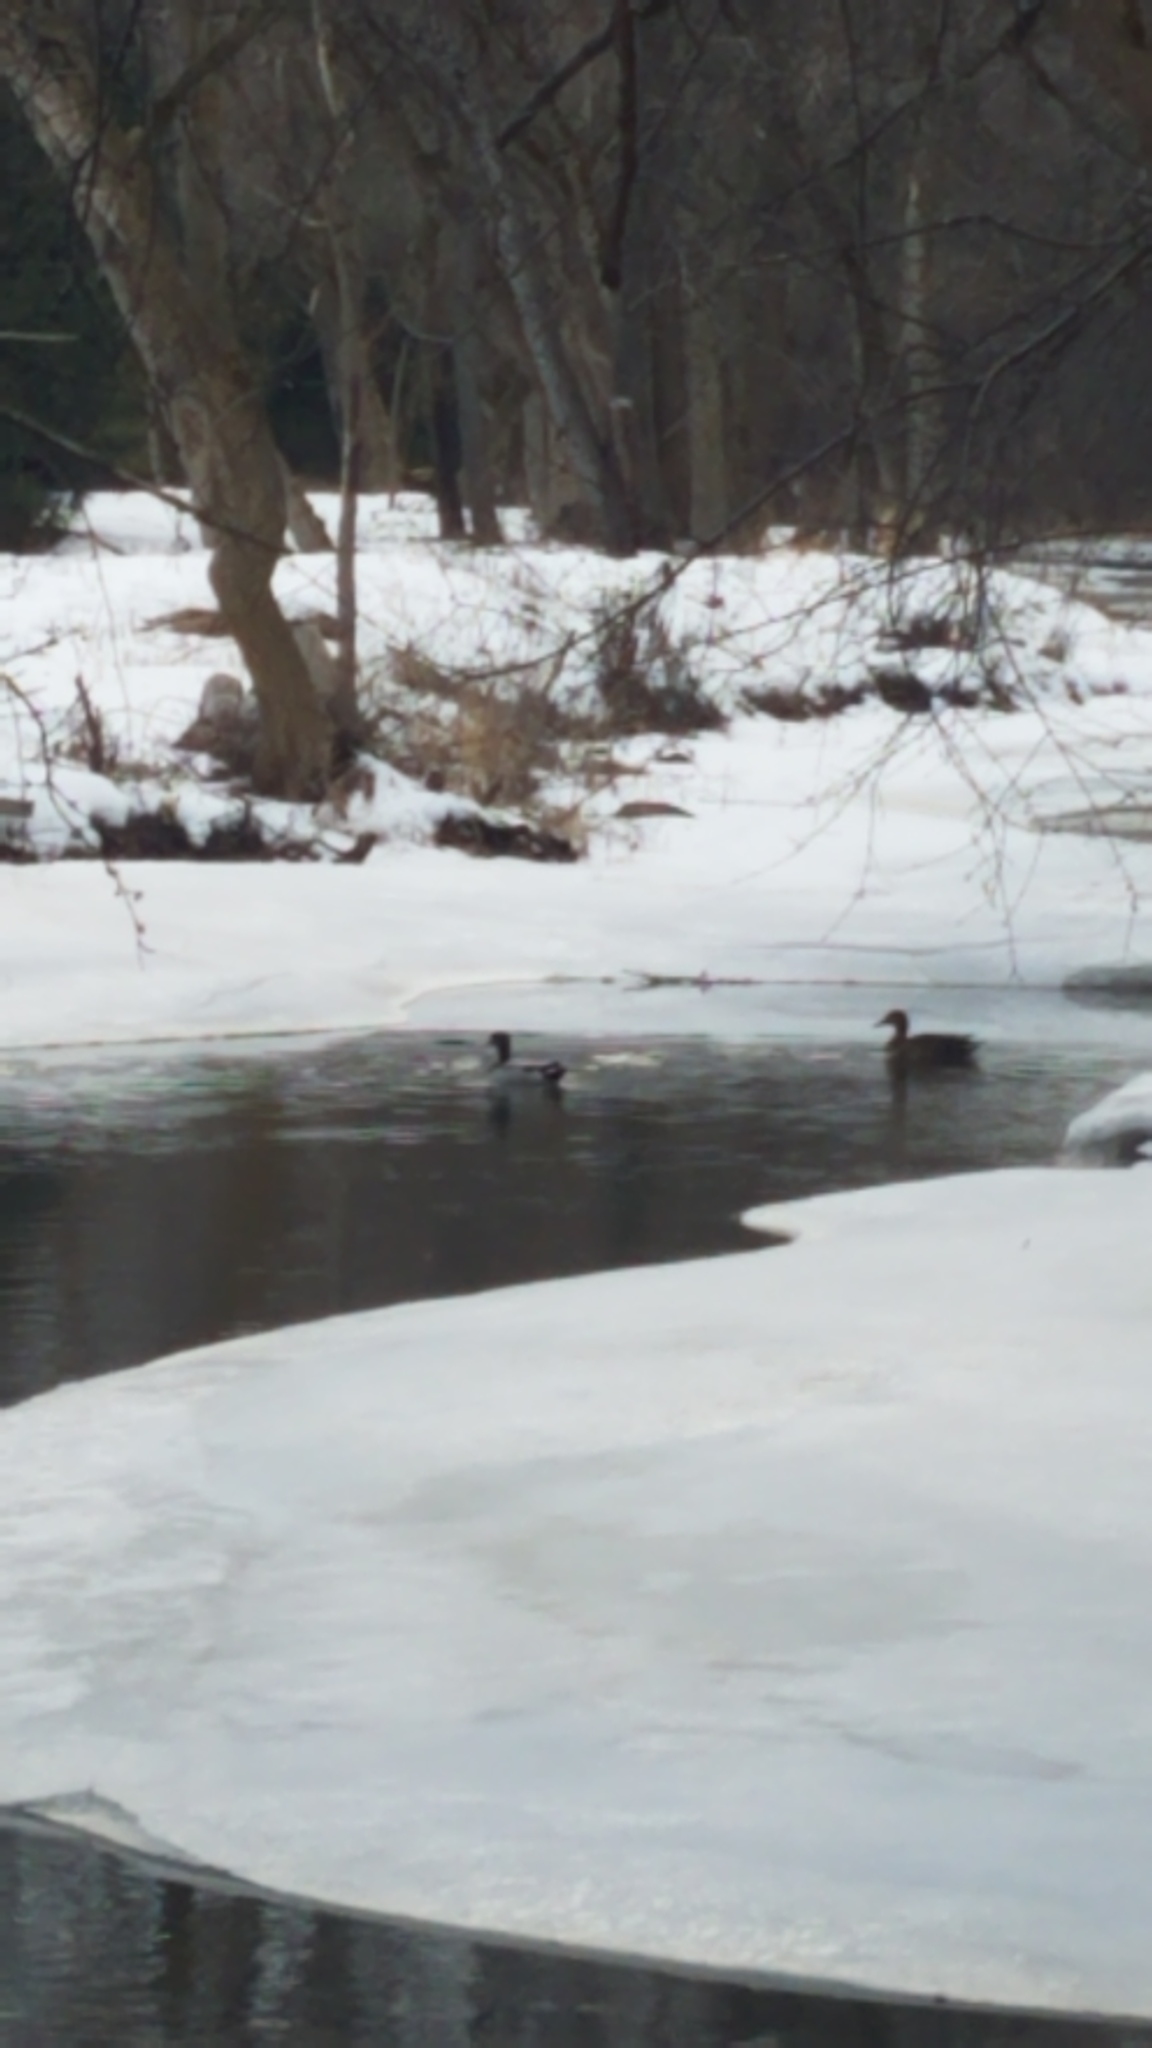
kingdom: Animalia
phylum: Chordata
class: Aves
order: Anseriformes
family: Anatidae
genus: Anas
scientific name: Anas platyrhynchos
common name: Mallard
